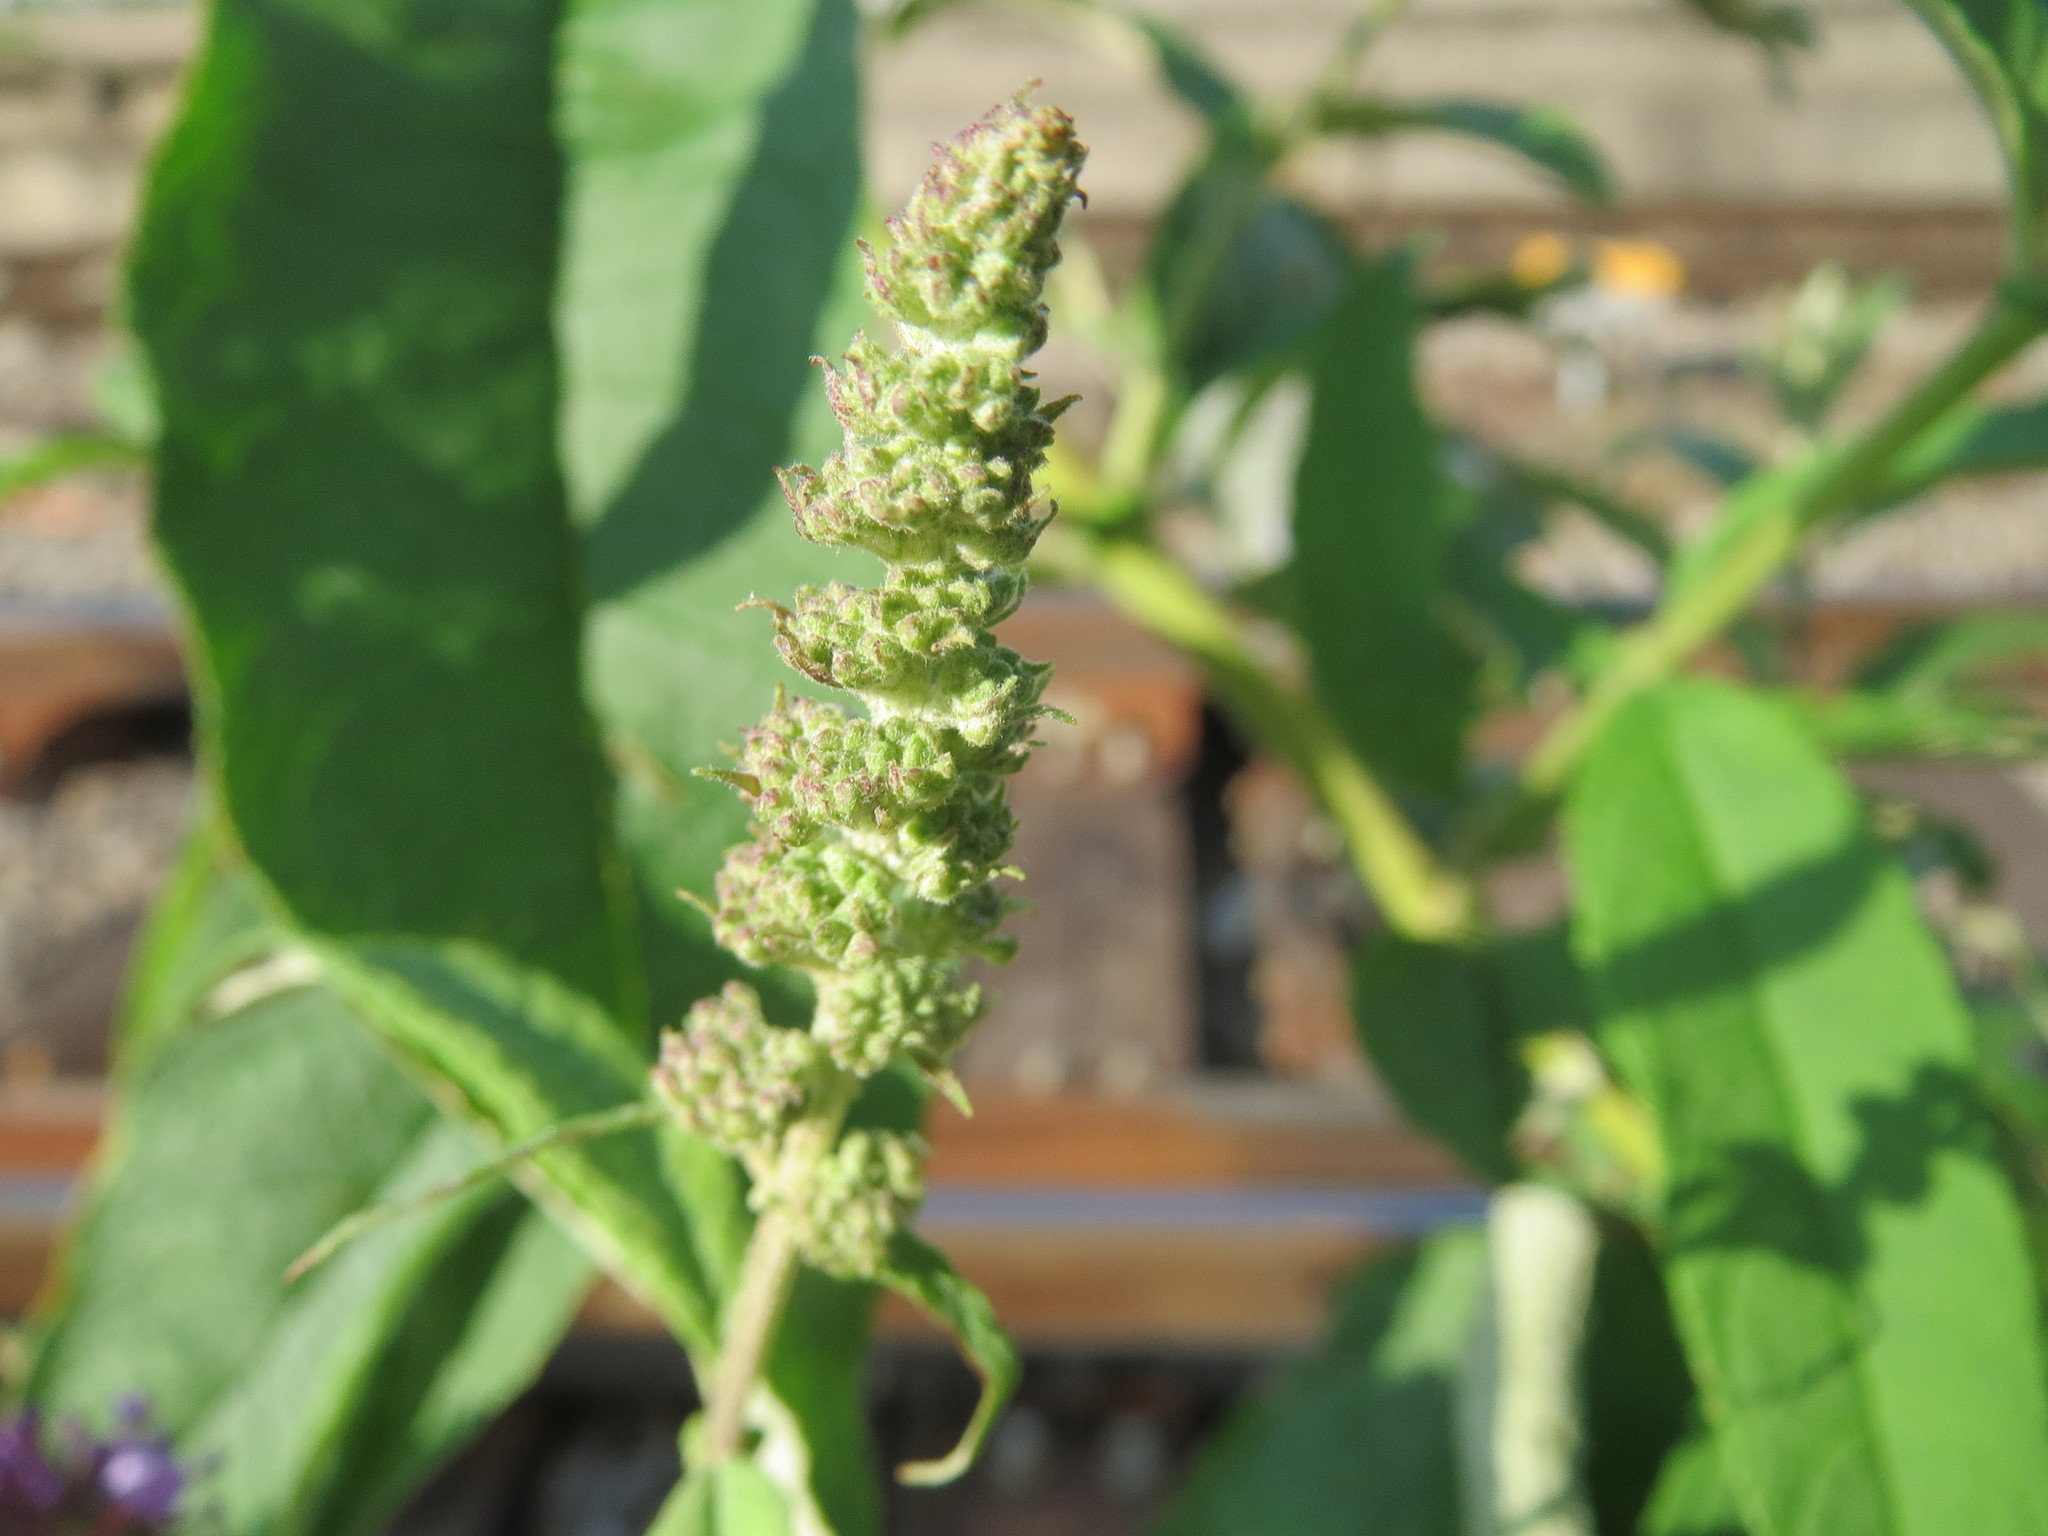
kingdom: Plantae
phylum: Tracheophyta
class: Magnoliopsida
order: Lamiales
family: Scrophulariaceae
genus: Buddleja
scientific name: Buddleja davidii
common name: Butterfly-bush
